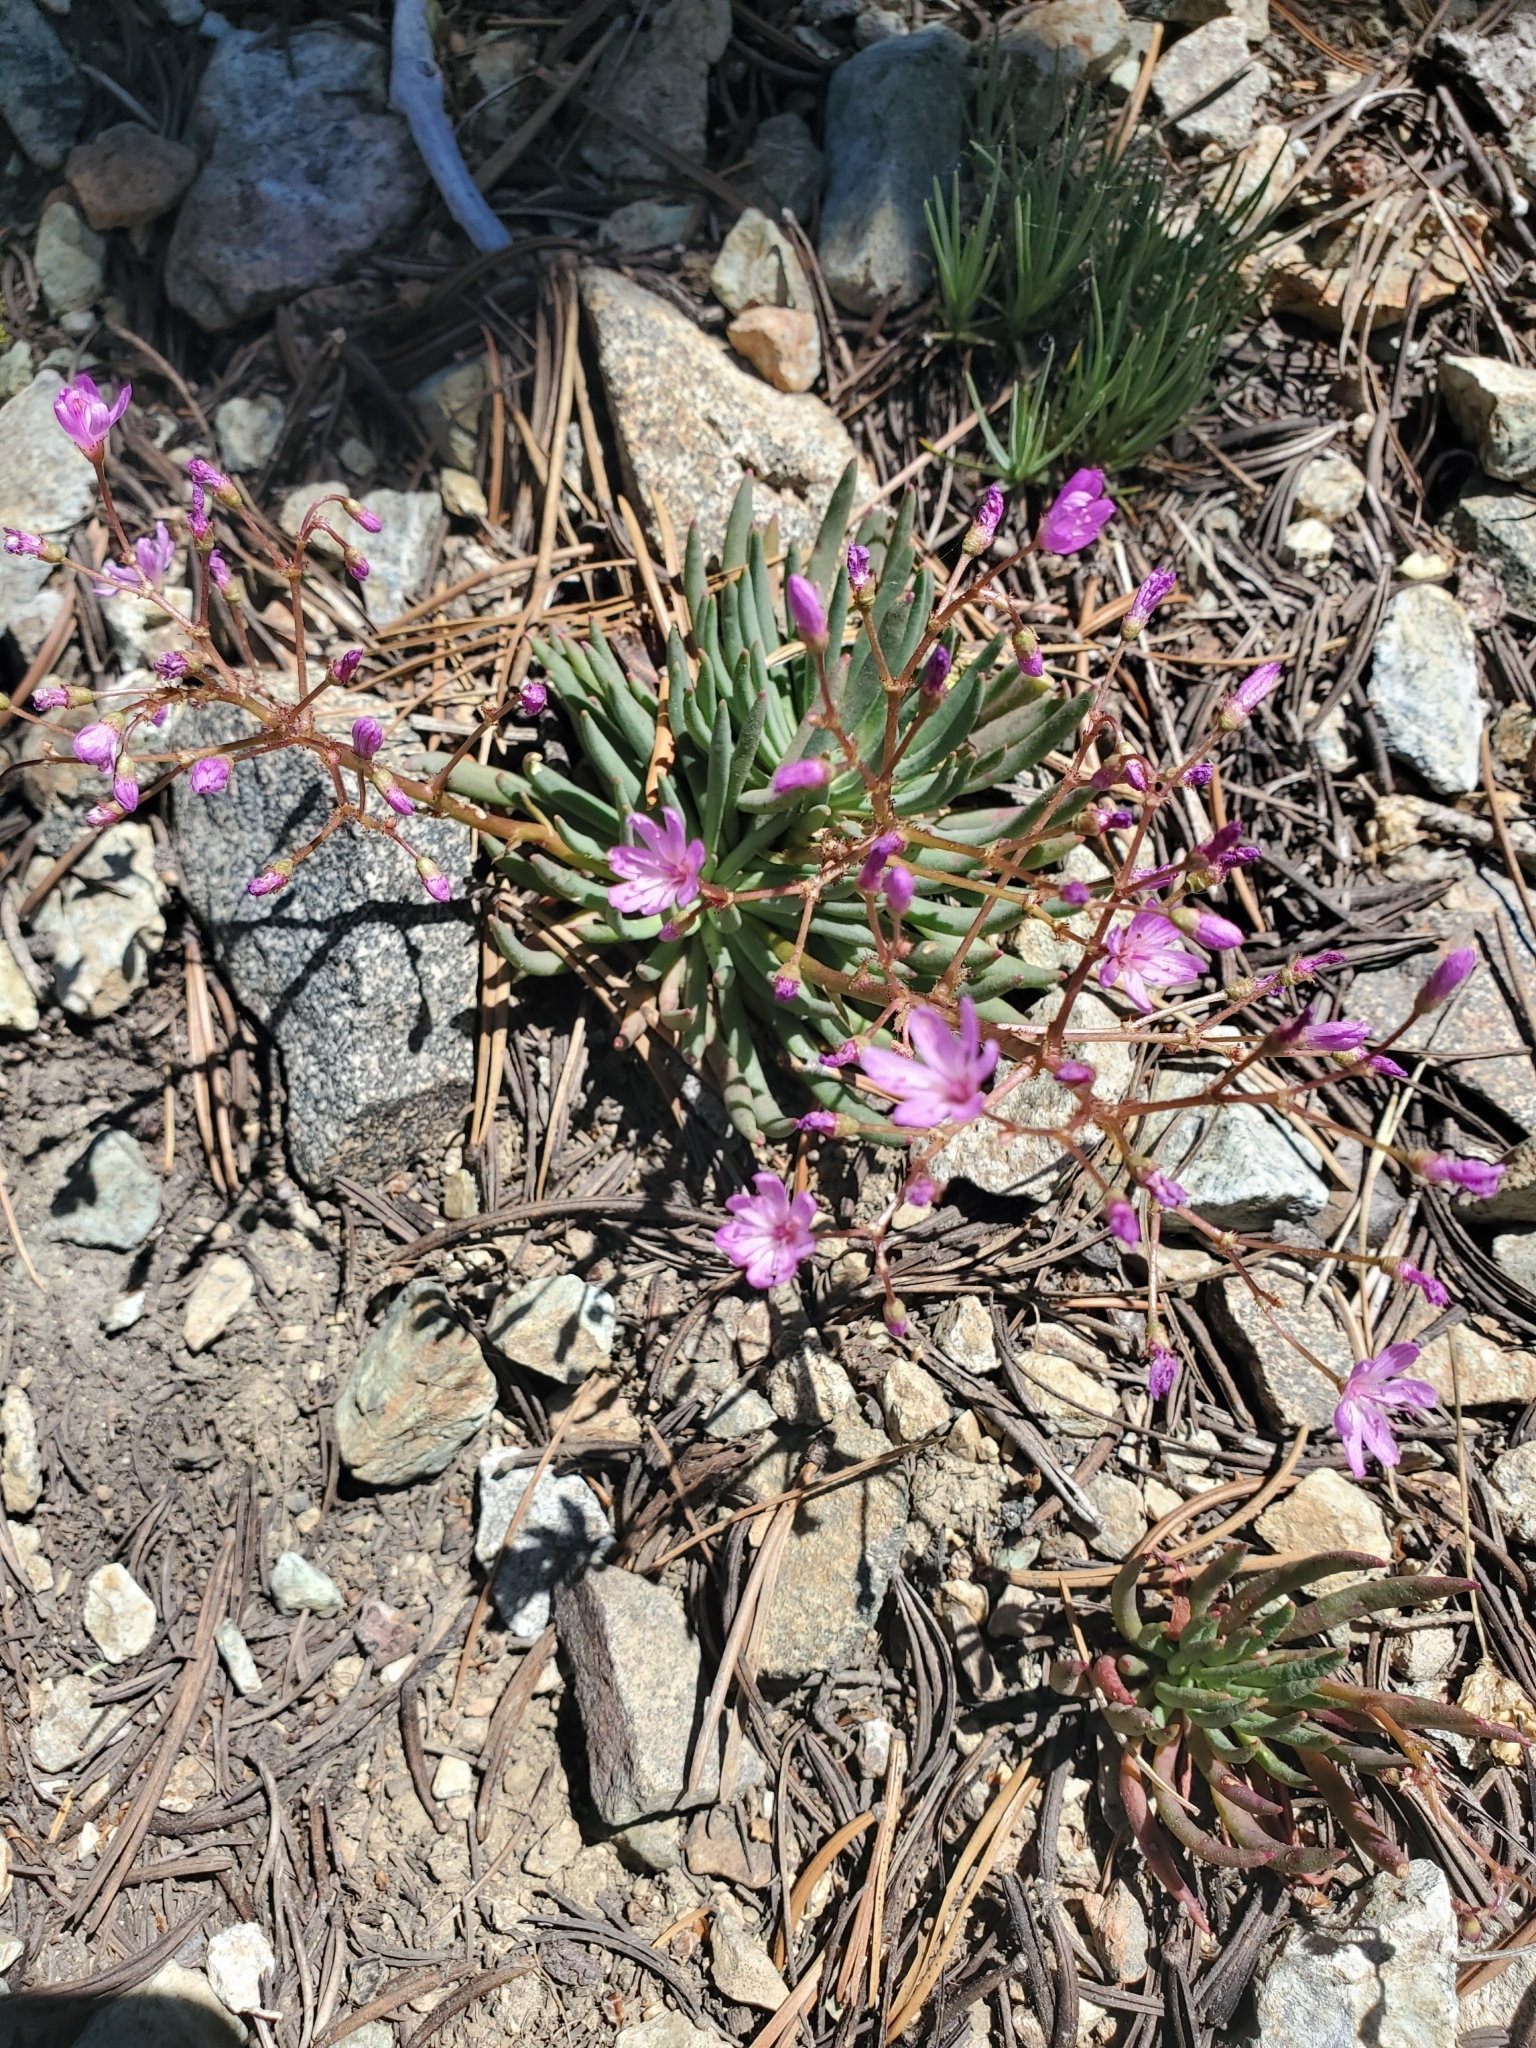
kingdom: Plantae
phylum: Tracheophyta
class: Magnoliopsida
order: Caryophyllales
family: Montiaceae
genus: Lewisia
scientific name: Lewisia leeana
